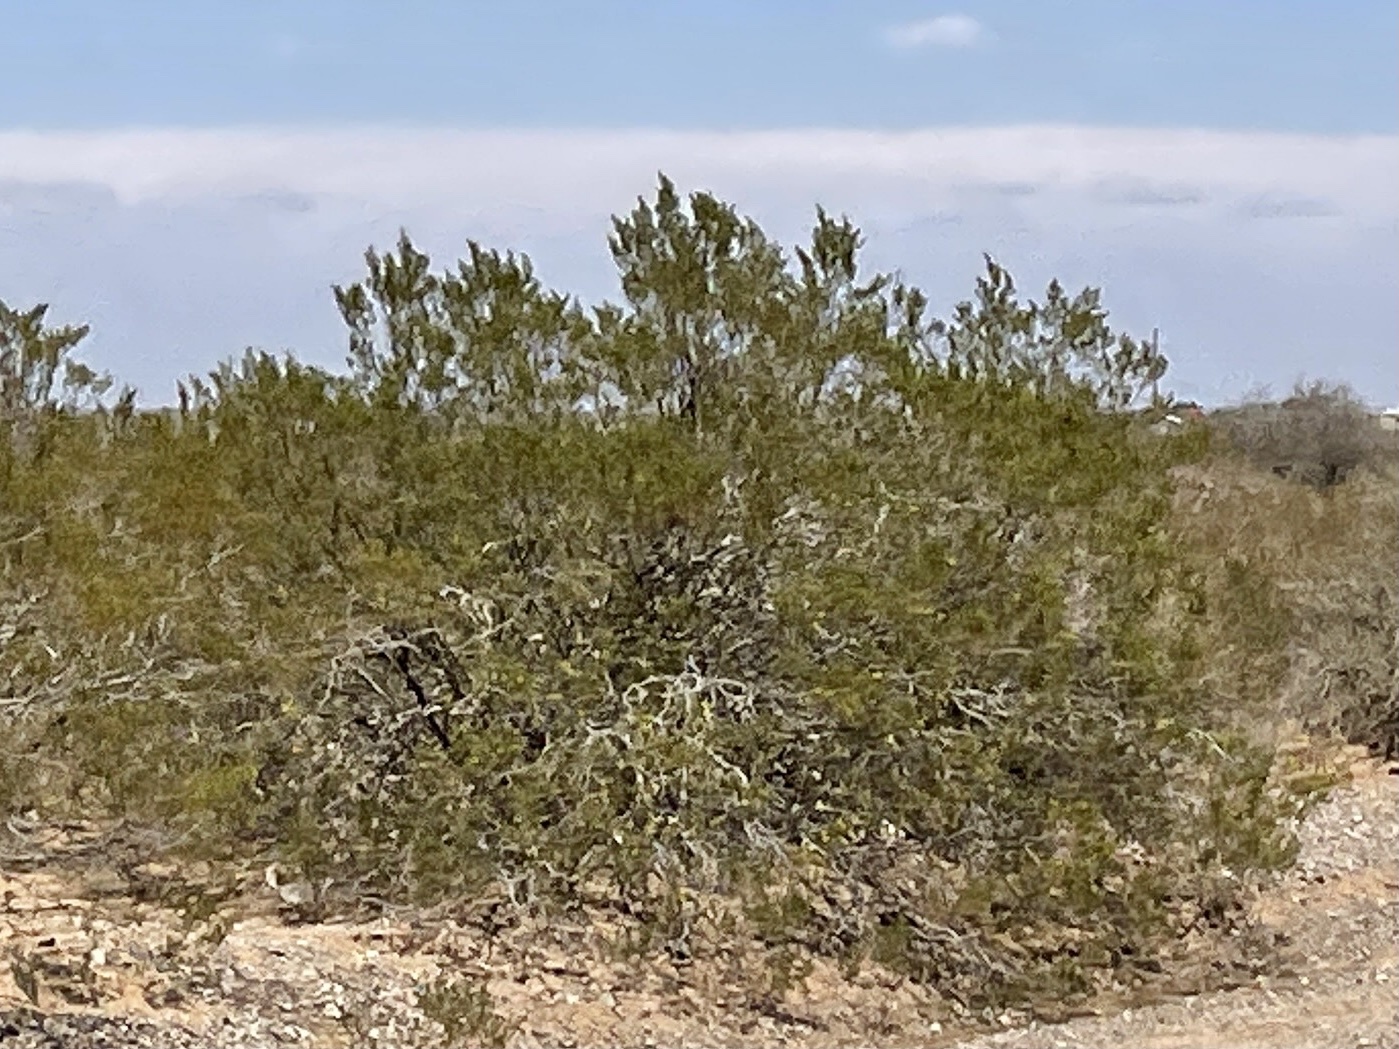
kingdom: Plantae
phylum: Tracheophyta
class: Magnoliopsida
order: Zygophyllales
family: Zygophyllaceae
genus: Larrea
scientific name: Larrea tridentata
